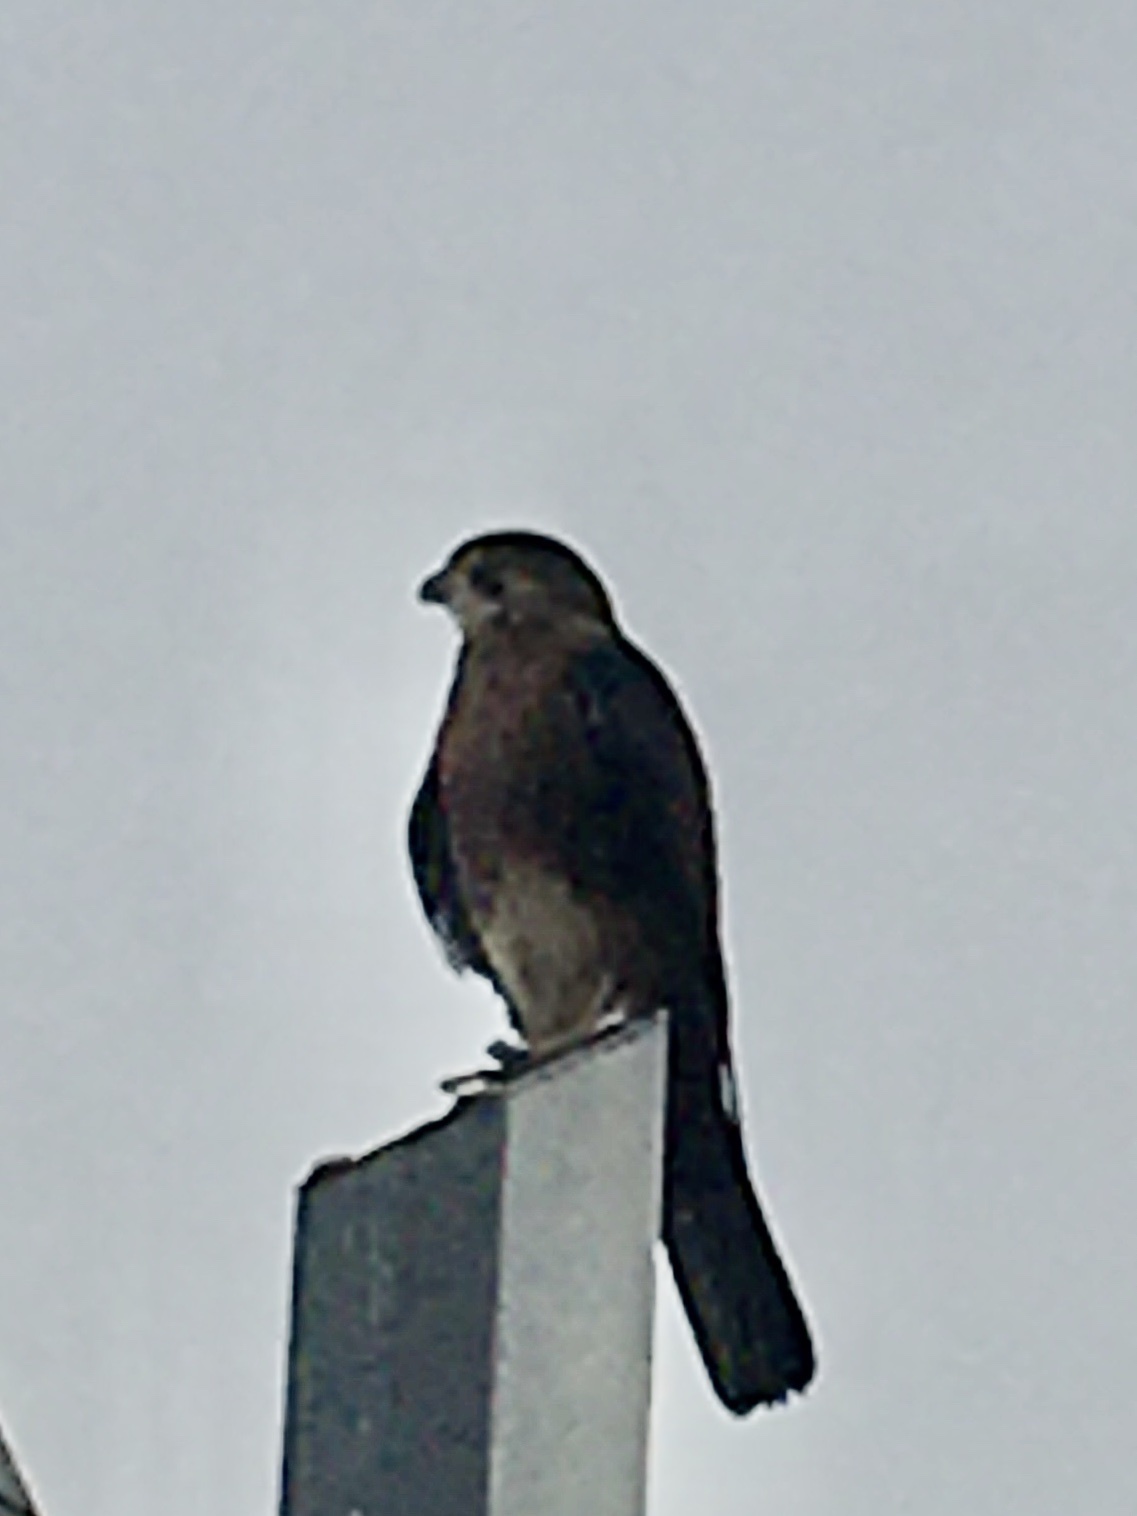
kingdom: Animalia
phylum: Chordata
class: Aves
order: Falconiformes
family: Falconidae
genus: Falco
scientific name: Falco novaeseelandiae
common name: New zealand falcon
